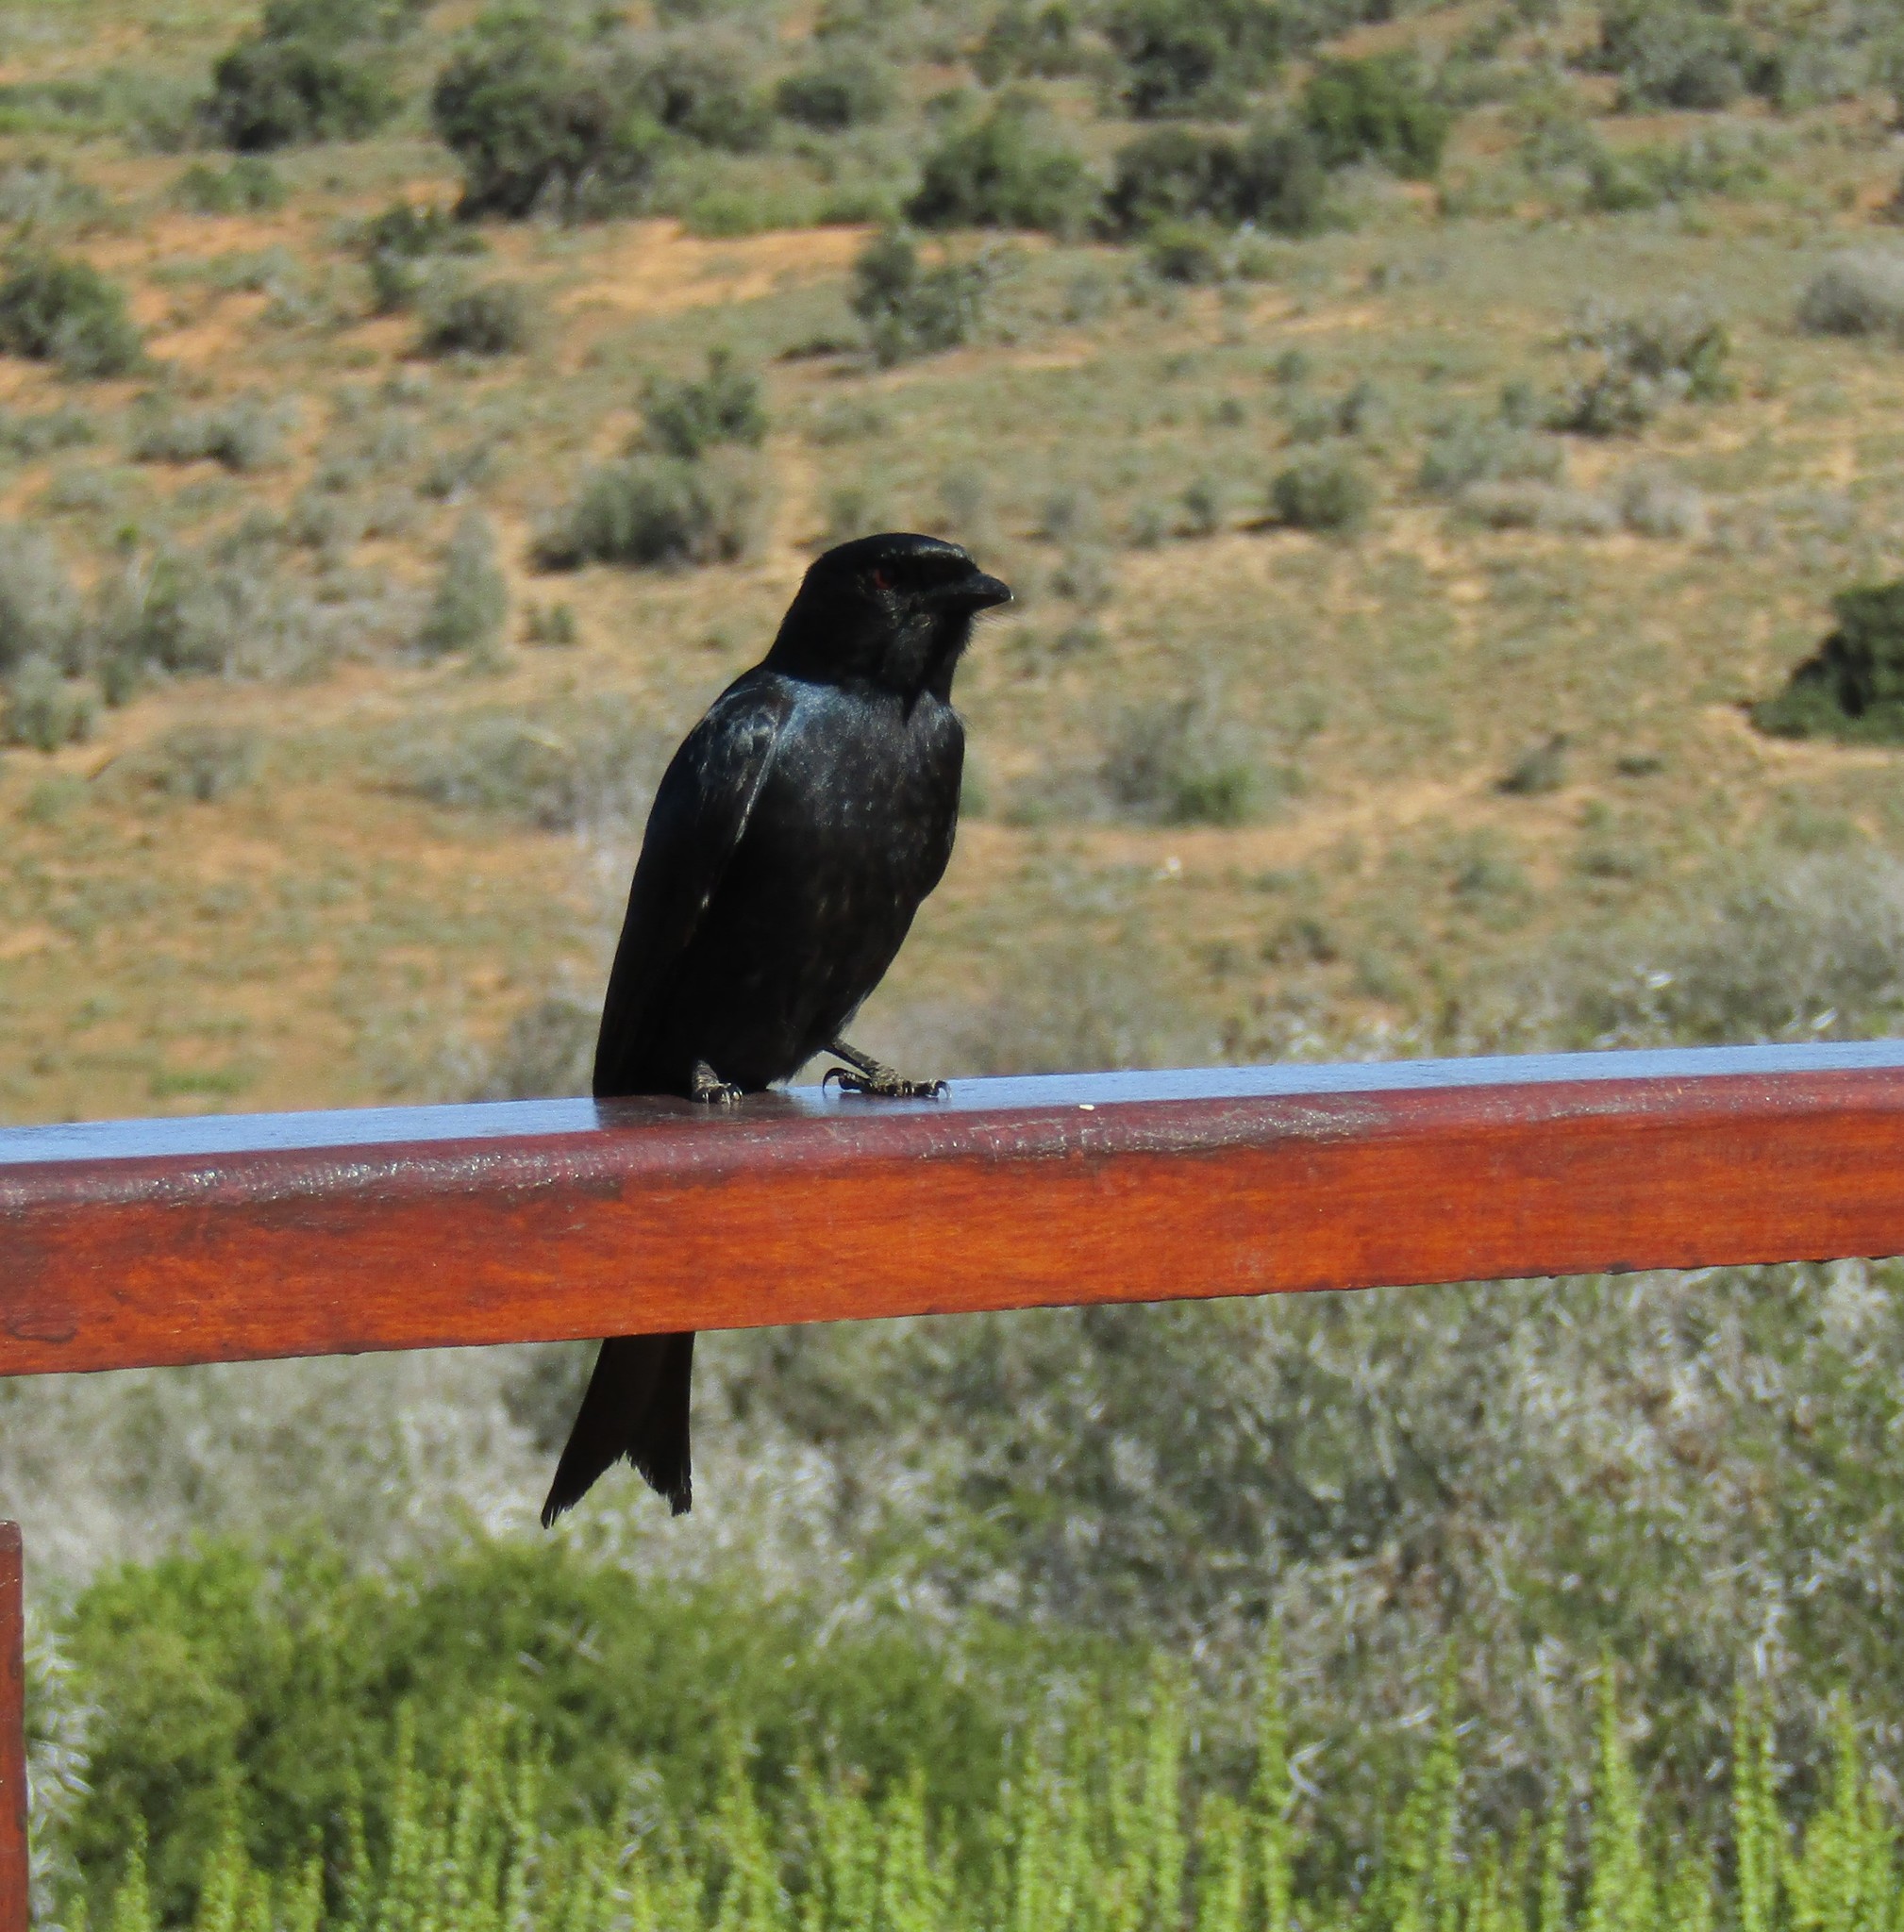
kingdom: Animalia
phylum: Chordata
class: Aves
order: Passeriformes
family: Dicruridae
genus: Dicrurus
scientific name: Dicrurus adsimilis
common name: Fork-tailed drongo
